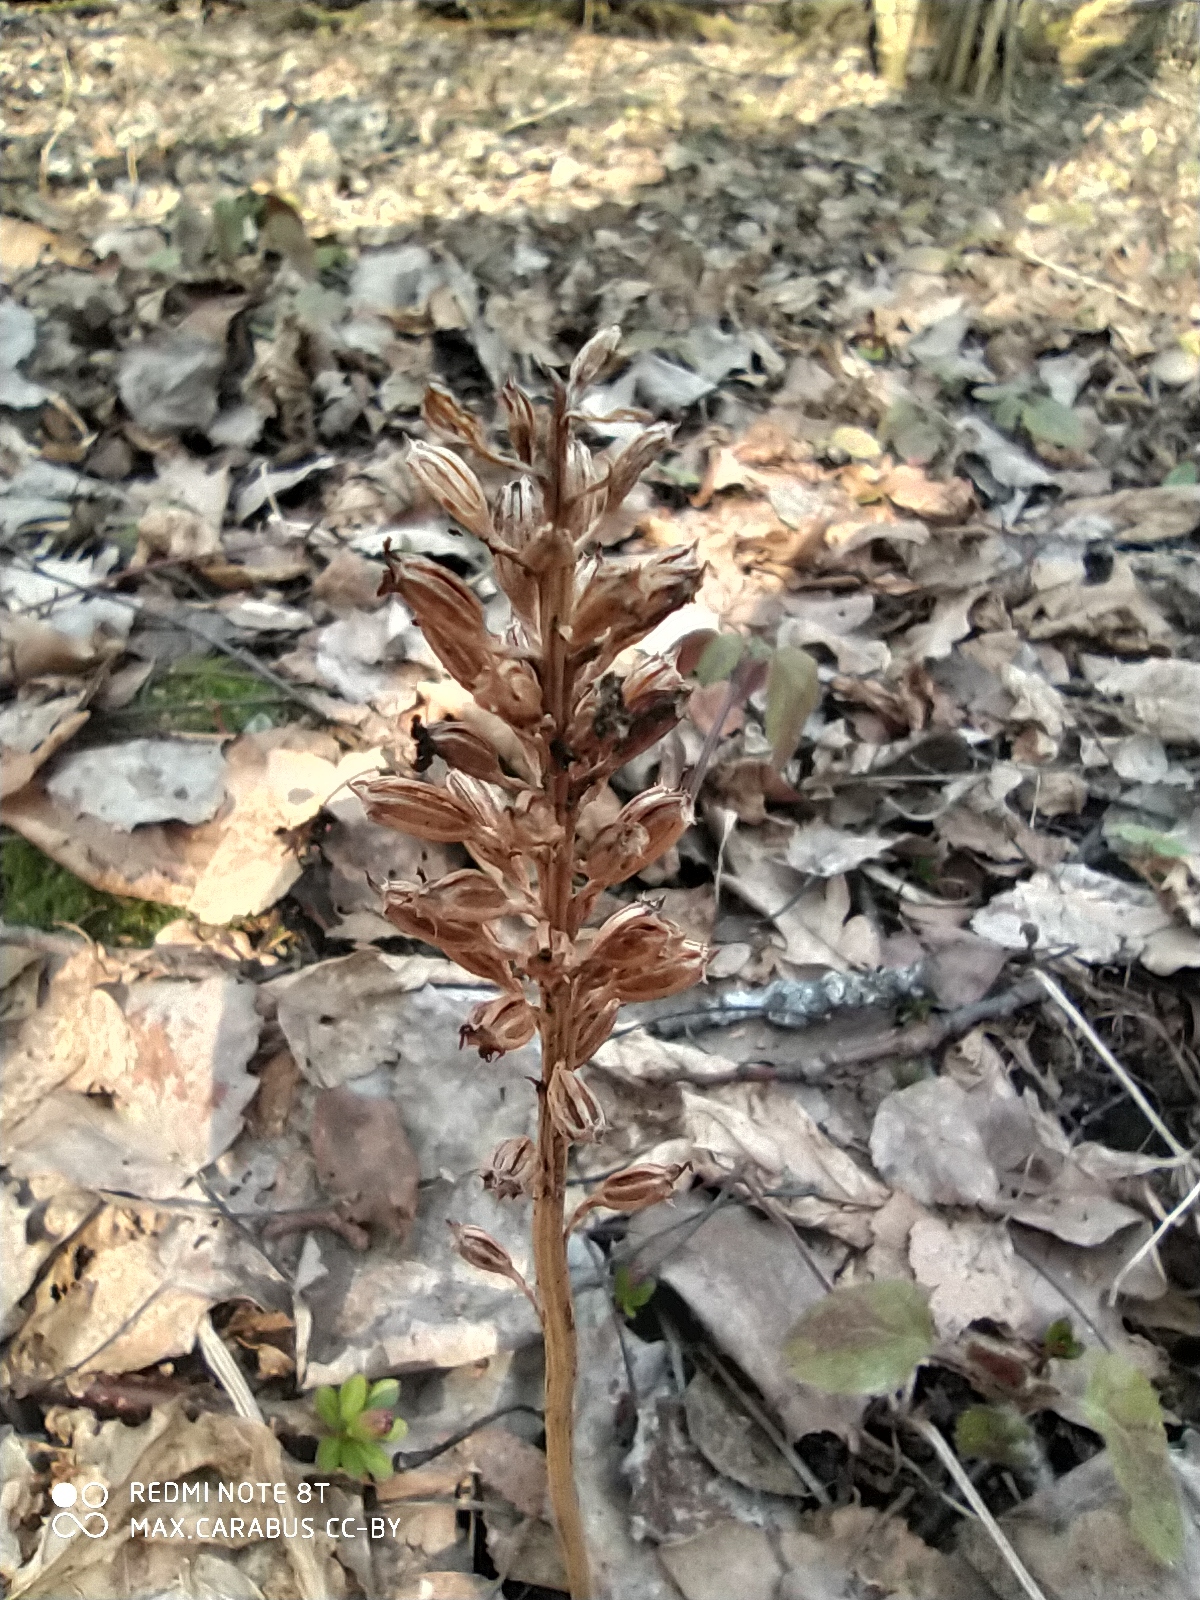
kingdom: Plantae
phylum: Tracheophyta
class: Liliopsida
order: Asparagales
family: Orchidaceae
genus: Neottia
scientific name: Neottia nidus-avis
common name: Bird's-nest orchid
